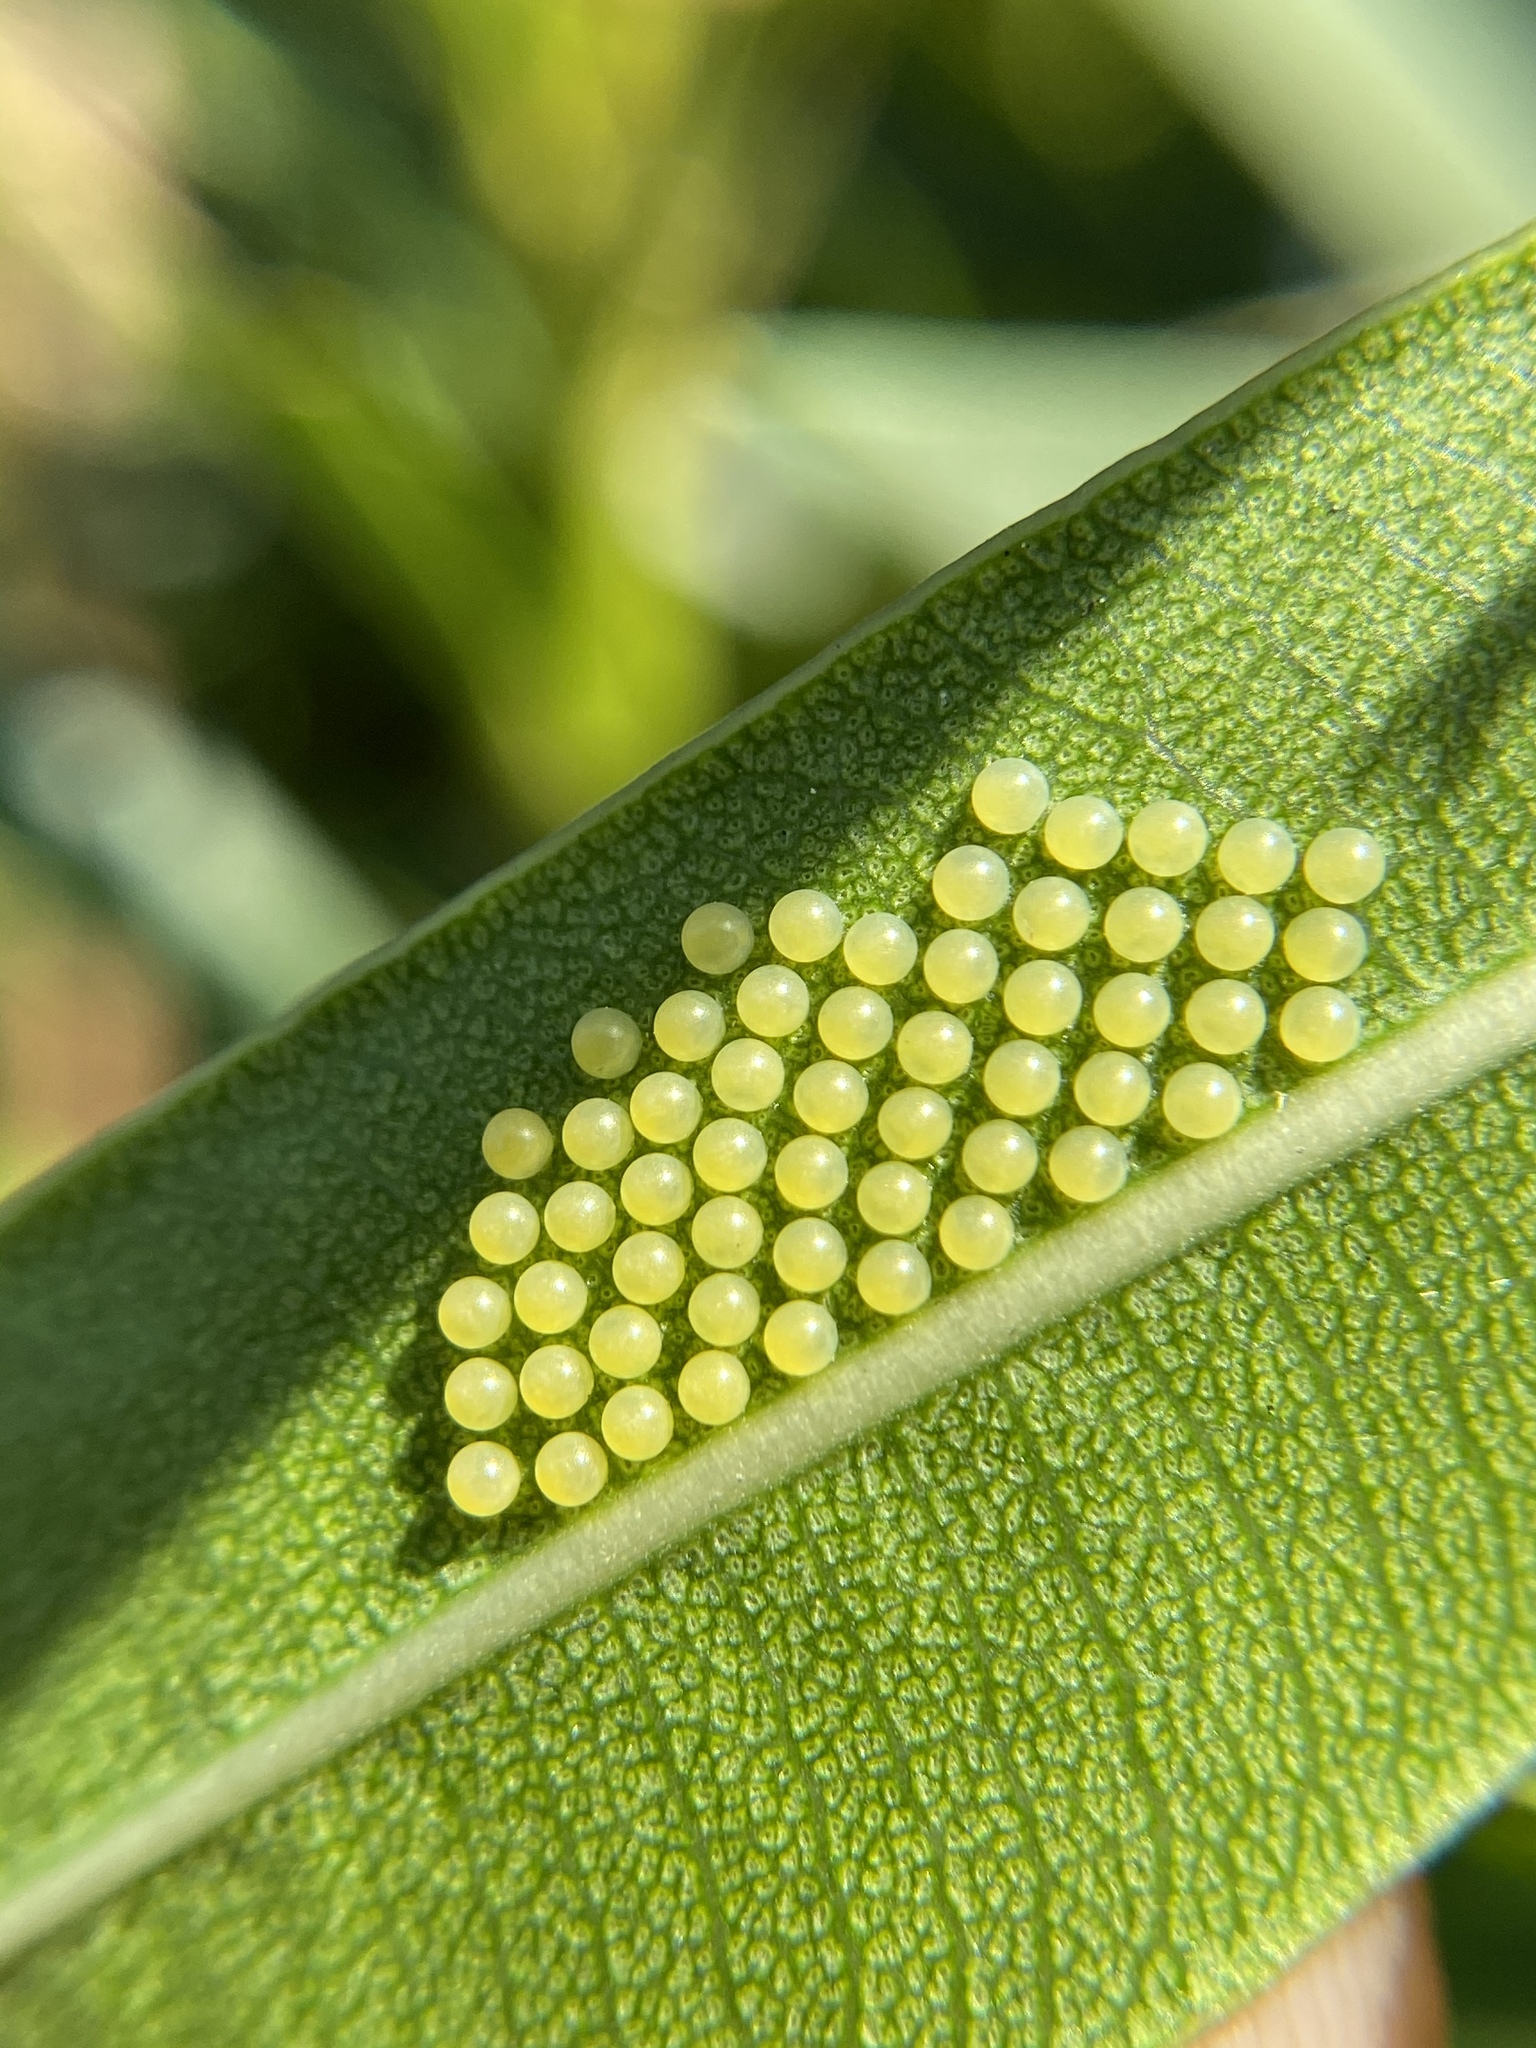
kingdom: Animalia
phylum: Arthropoda
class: Insecta
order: Lepidoptera
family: Erebidae
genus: Syntomeida
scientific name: Syntomeida epilais
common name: Polka-dot wasp moth
